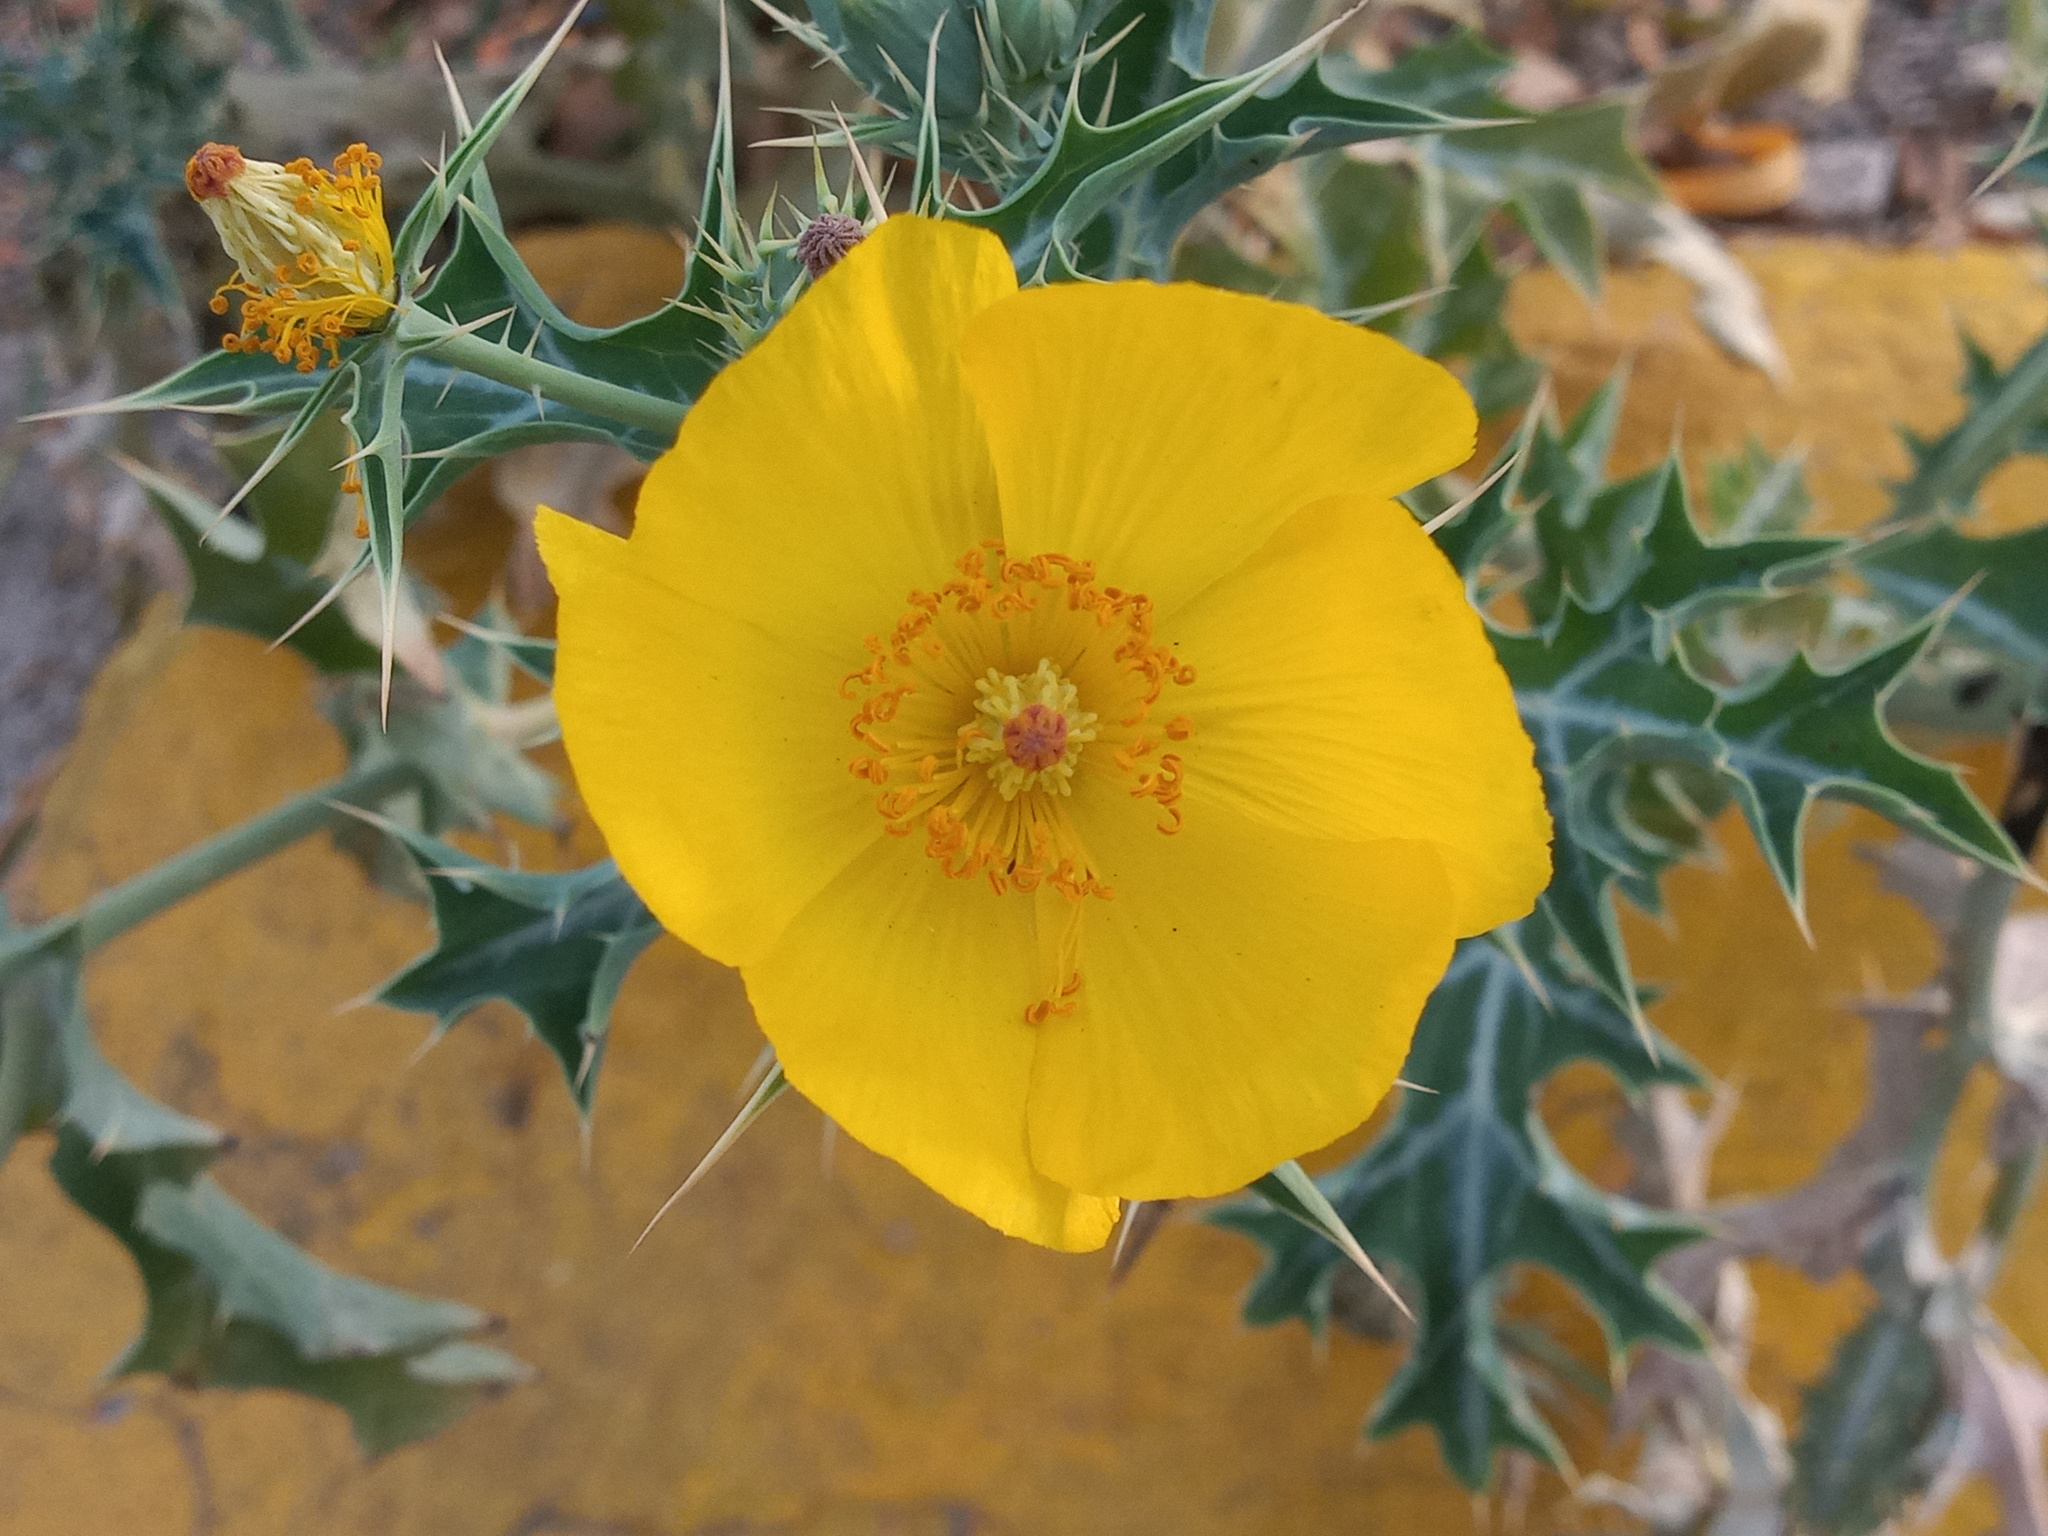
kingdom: Plantae
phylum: Tracheophyta
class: Magnoliopsida
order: Ranunculales
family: Papaveraceae
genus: Argemone
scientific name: Argemone mexicana
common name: Mexican poppy
